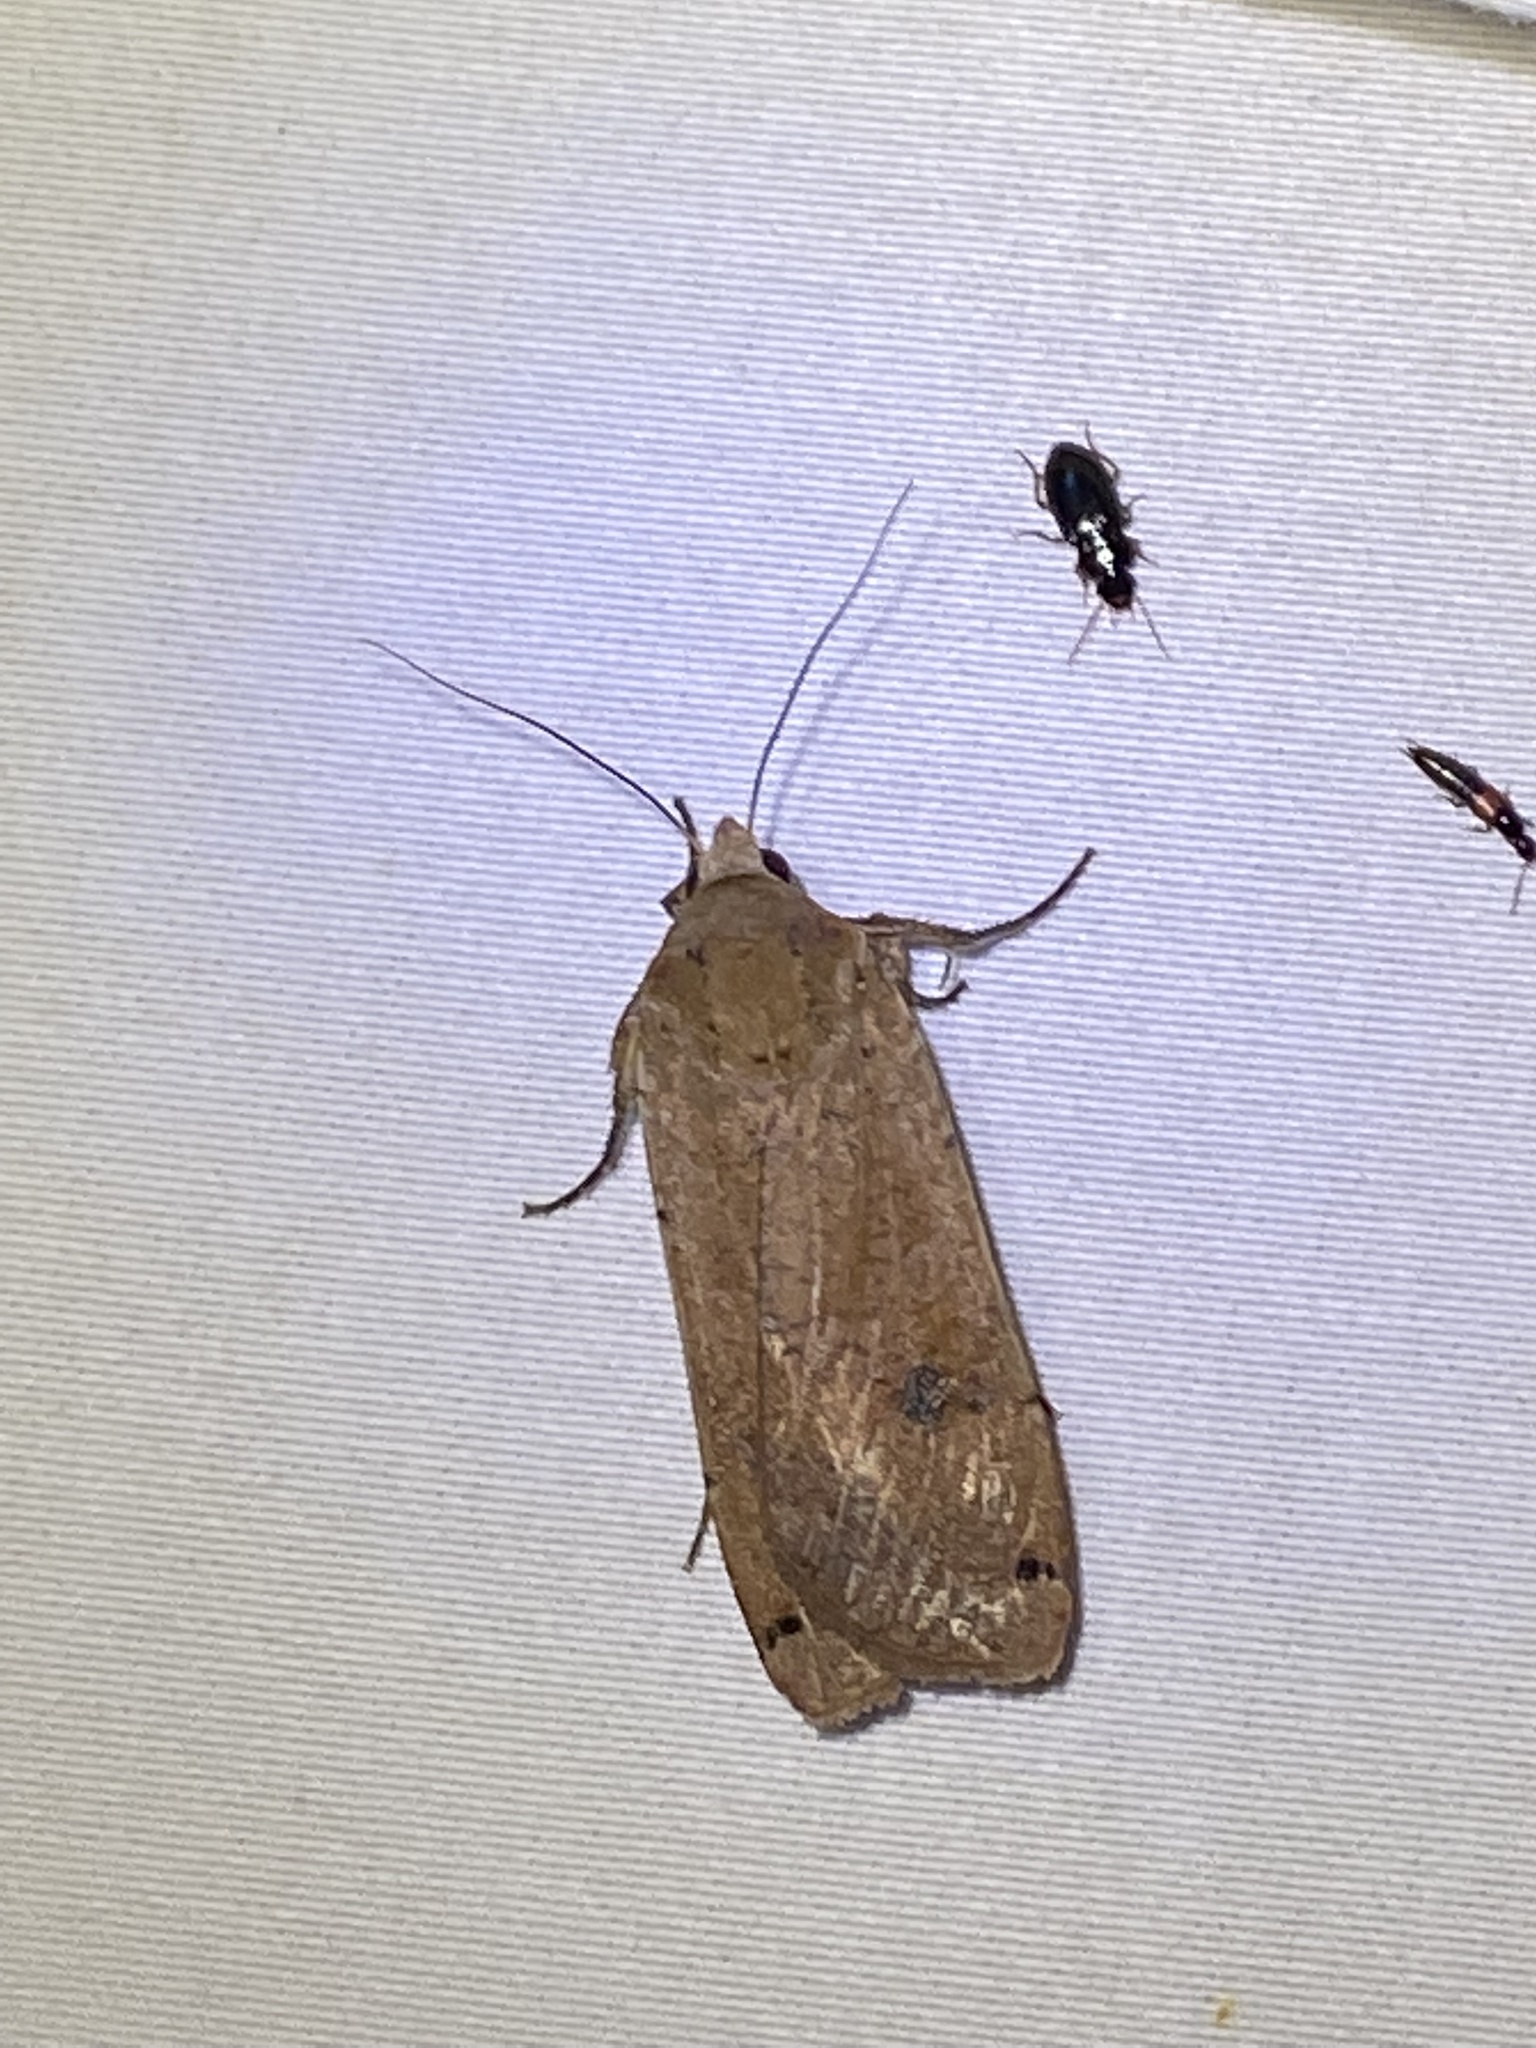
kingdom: Animalia
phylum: Arthropoda
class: Insecta
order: Lepidoptera
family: Noctuidae
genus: Noctua
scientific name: Noctua pronuba
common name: Large yellow underwing
